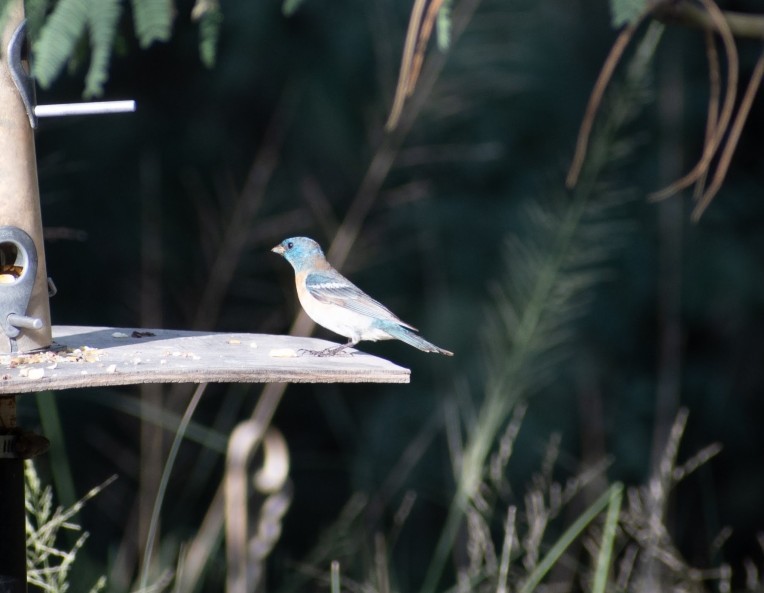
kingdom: Animalia
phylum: Chordata
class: Aves
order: Passeriformes
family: Cardinalidae
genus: Passerina
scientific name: Passerina amoena
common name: Lazuli bunting
